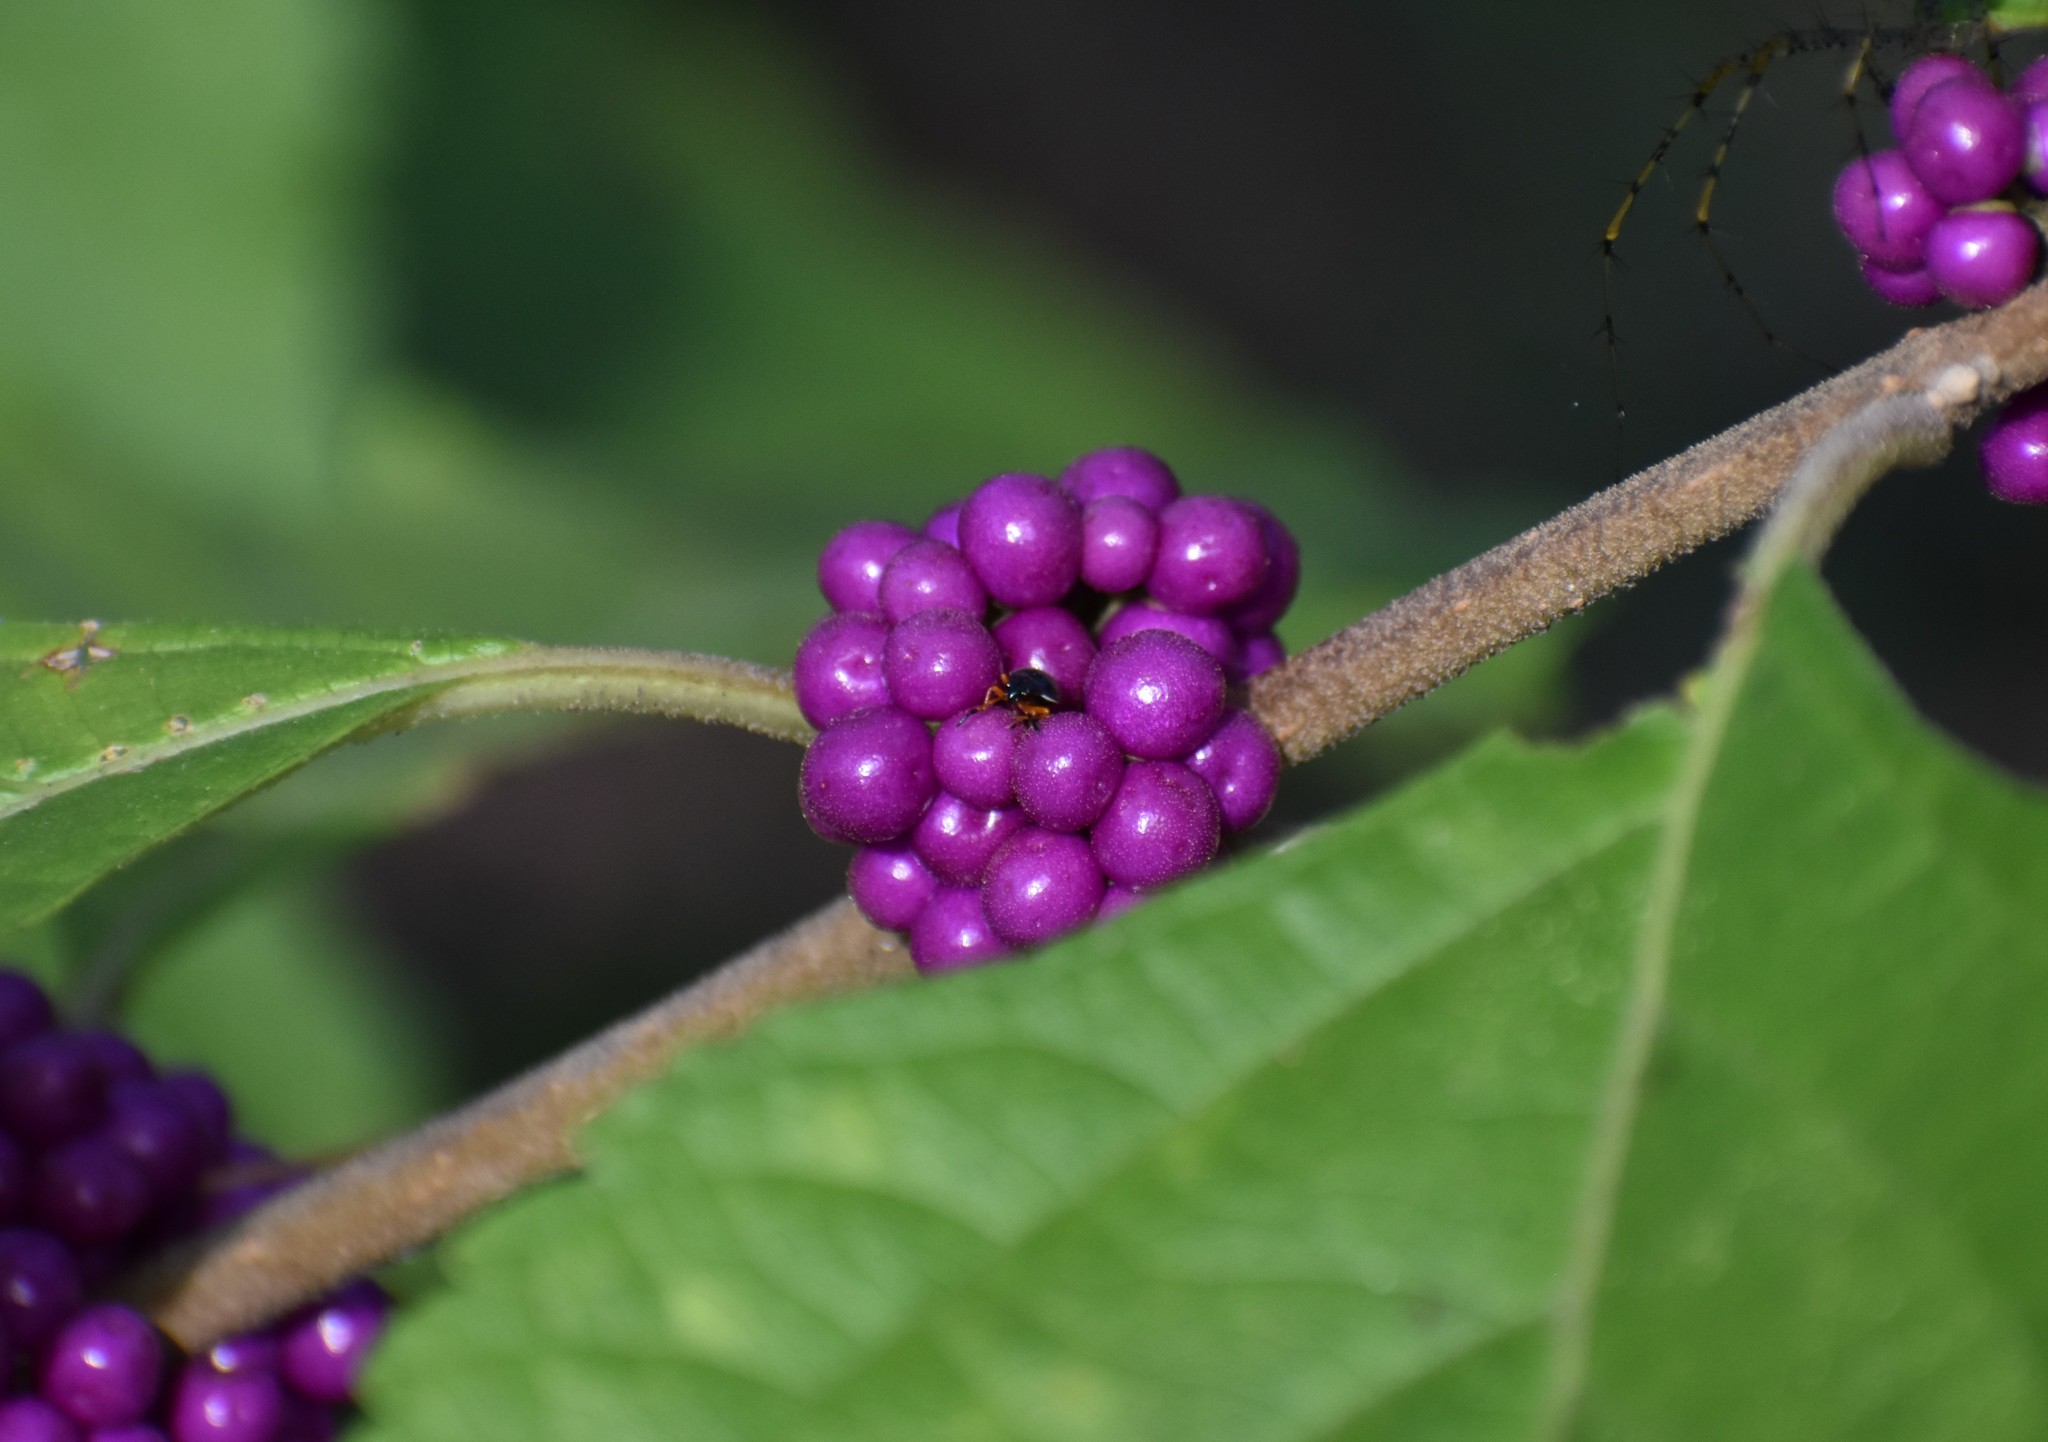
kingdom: Plantae
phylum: Tracheophyta
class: Magnoliopsida
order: Lamiales
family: Lamiaceae
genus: Callicarpa
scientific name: Callicarpa americana
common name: American beautyberry
